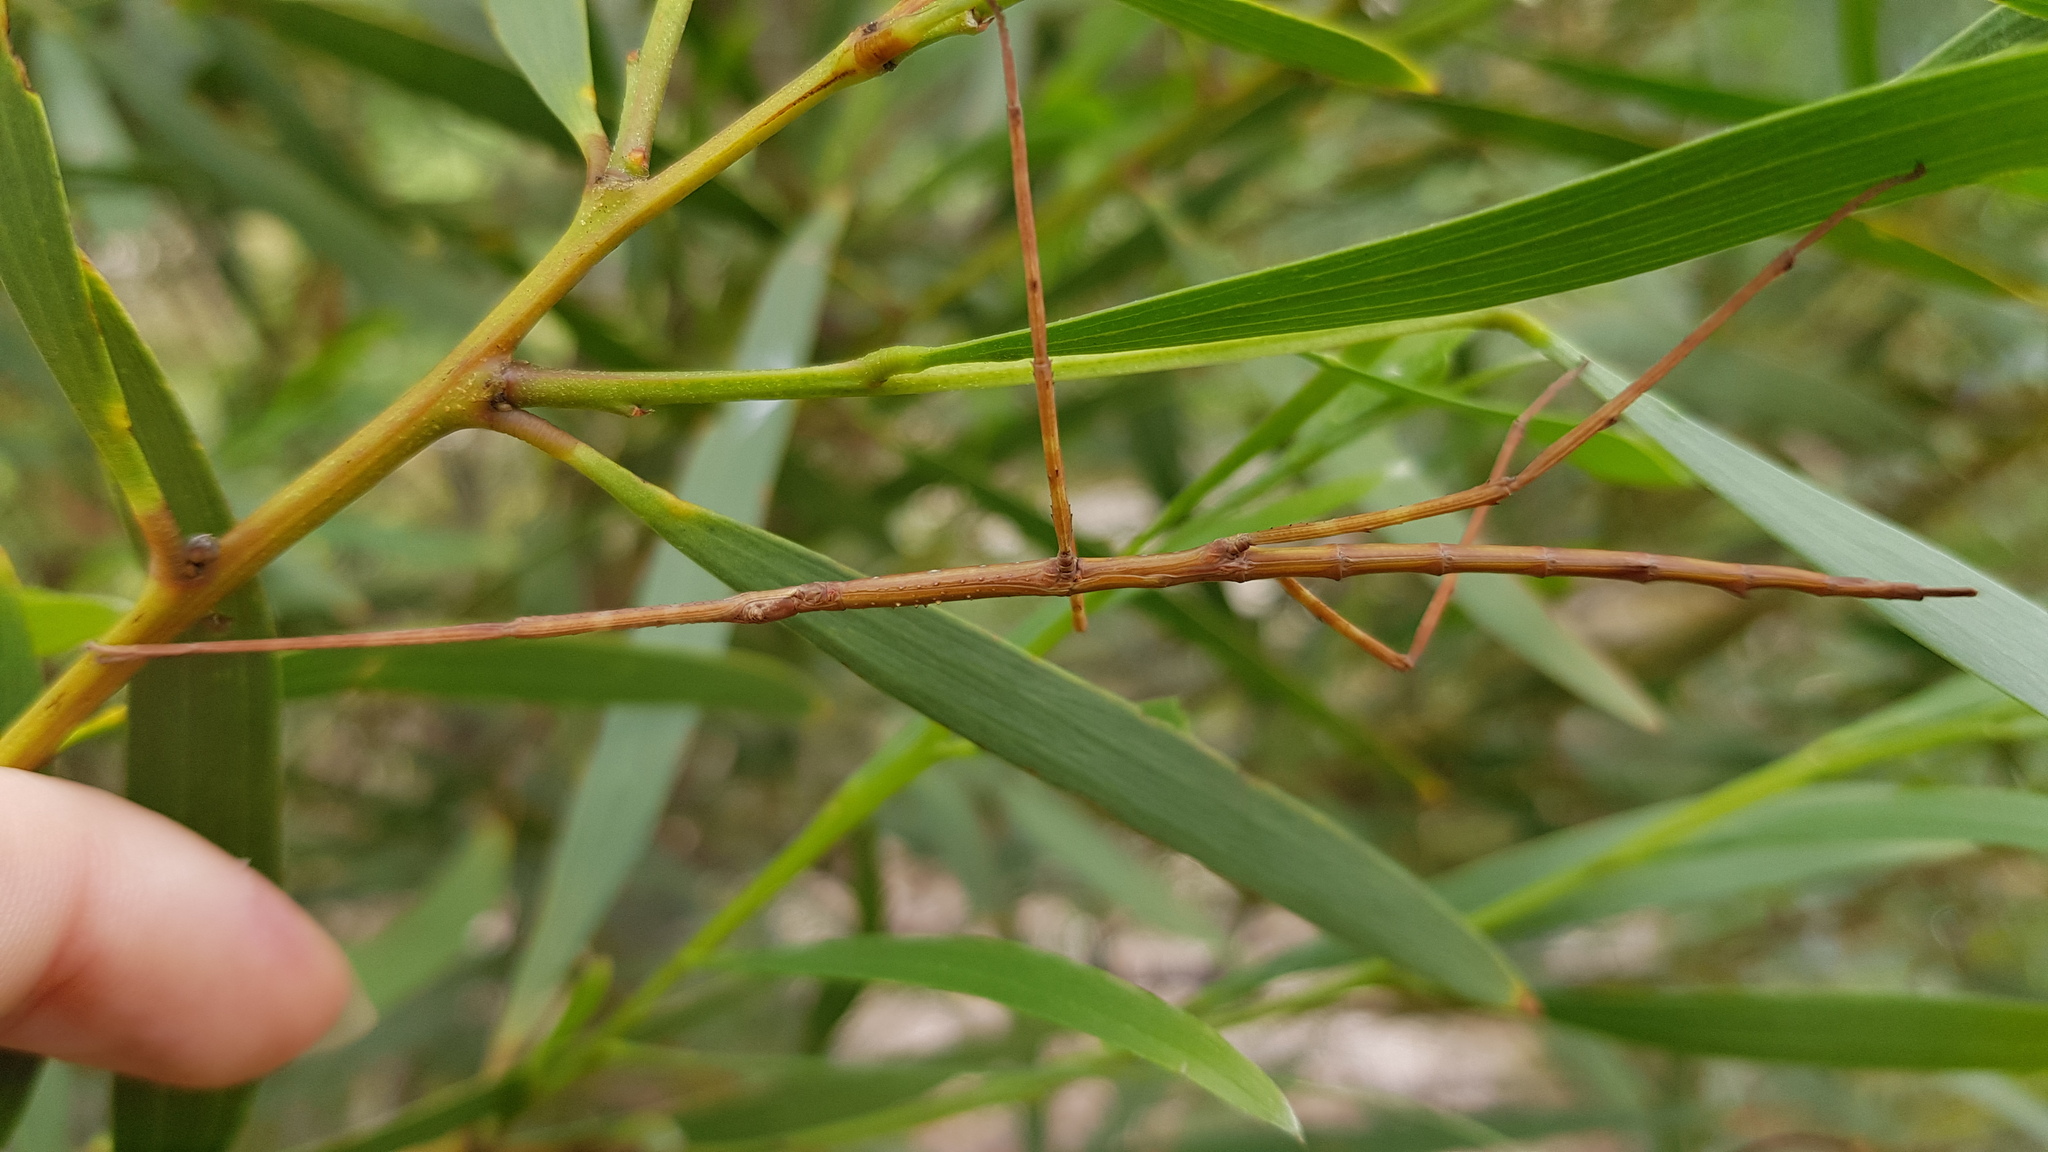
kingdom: Animalia
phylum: Arthropoda
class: Insecta
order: Phasmida
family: Phasmatidae
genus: Ctenomorpha
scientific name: Ctenomorpha marginipennis
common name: Margined-winged stick-insect
